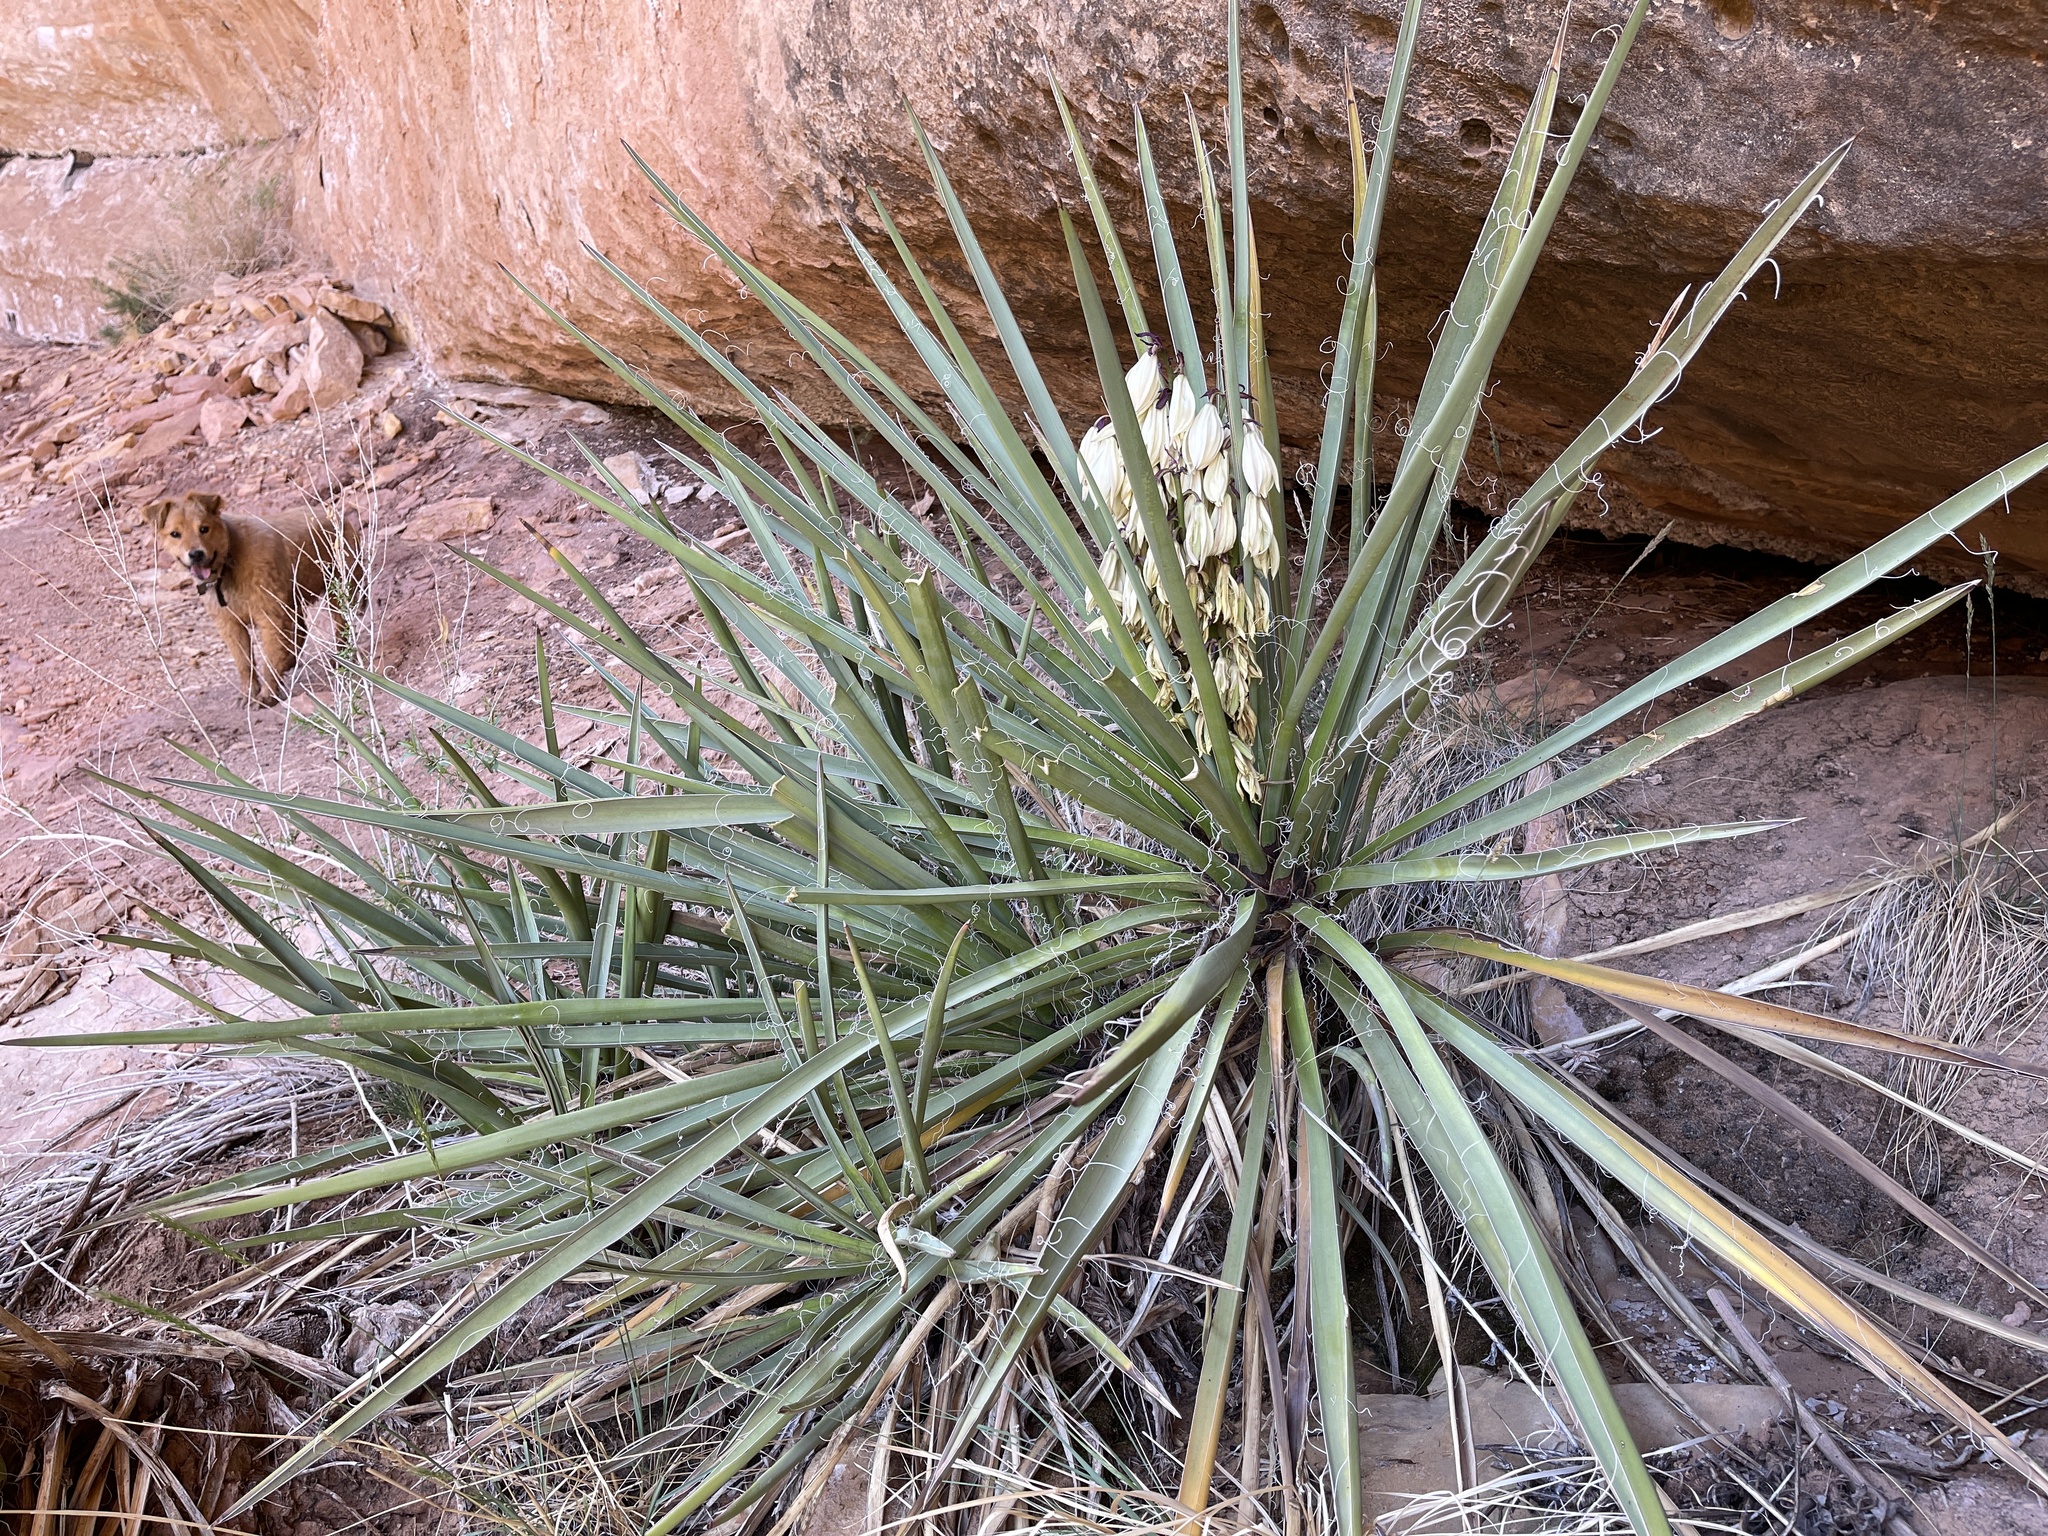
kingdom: Plantae
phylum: Tracheophyta
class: Liliopsida
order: Asparagales
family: Asparagaceae
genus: Yucca
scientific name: Yucca baccata
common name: Banana yucca
